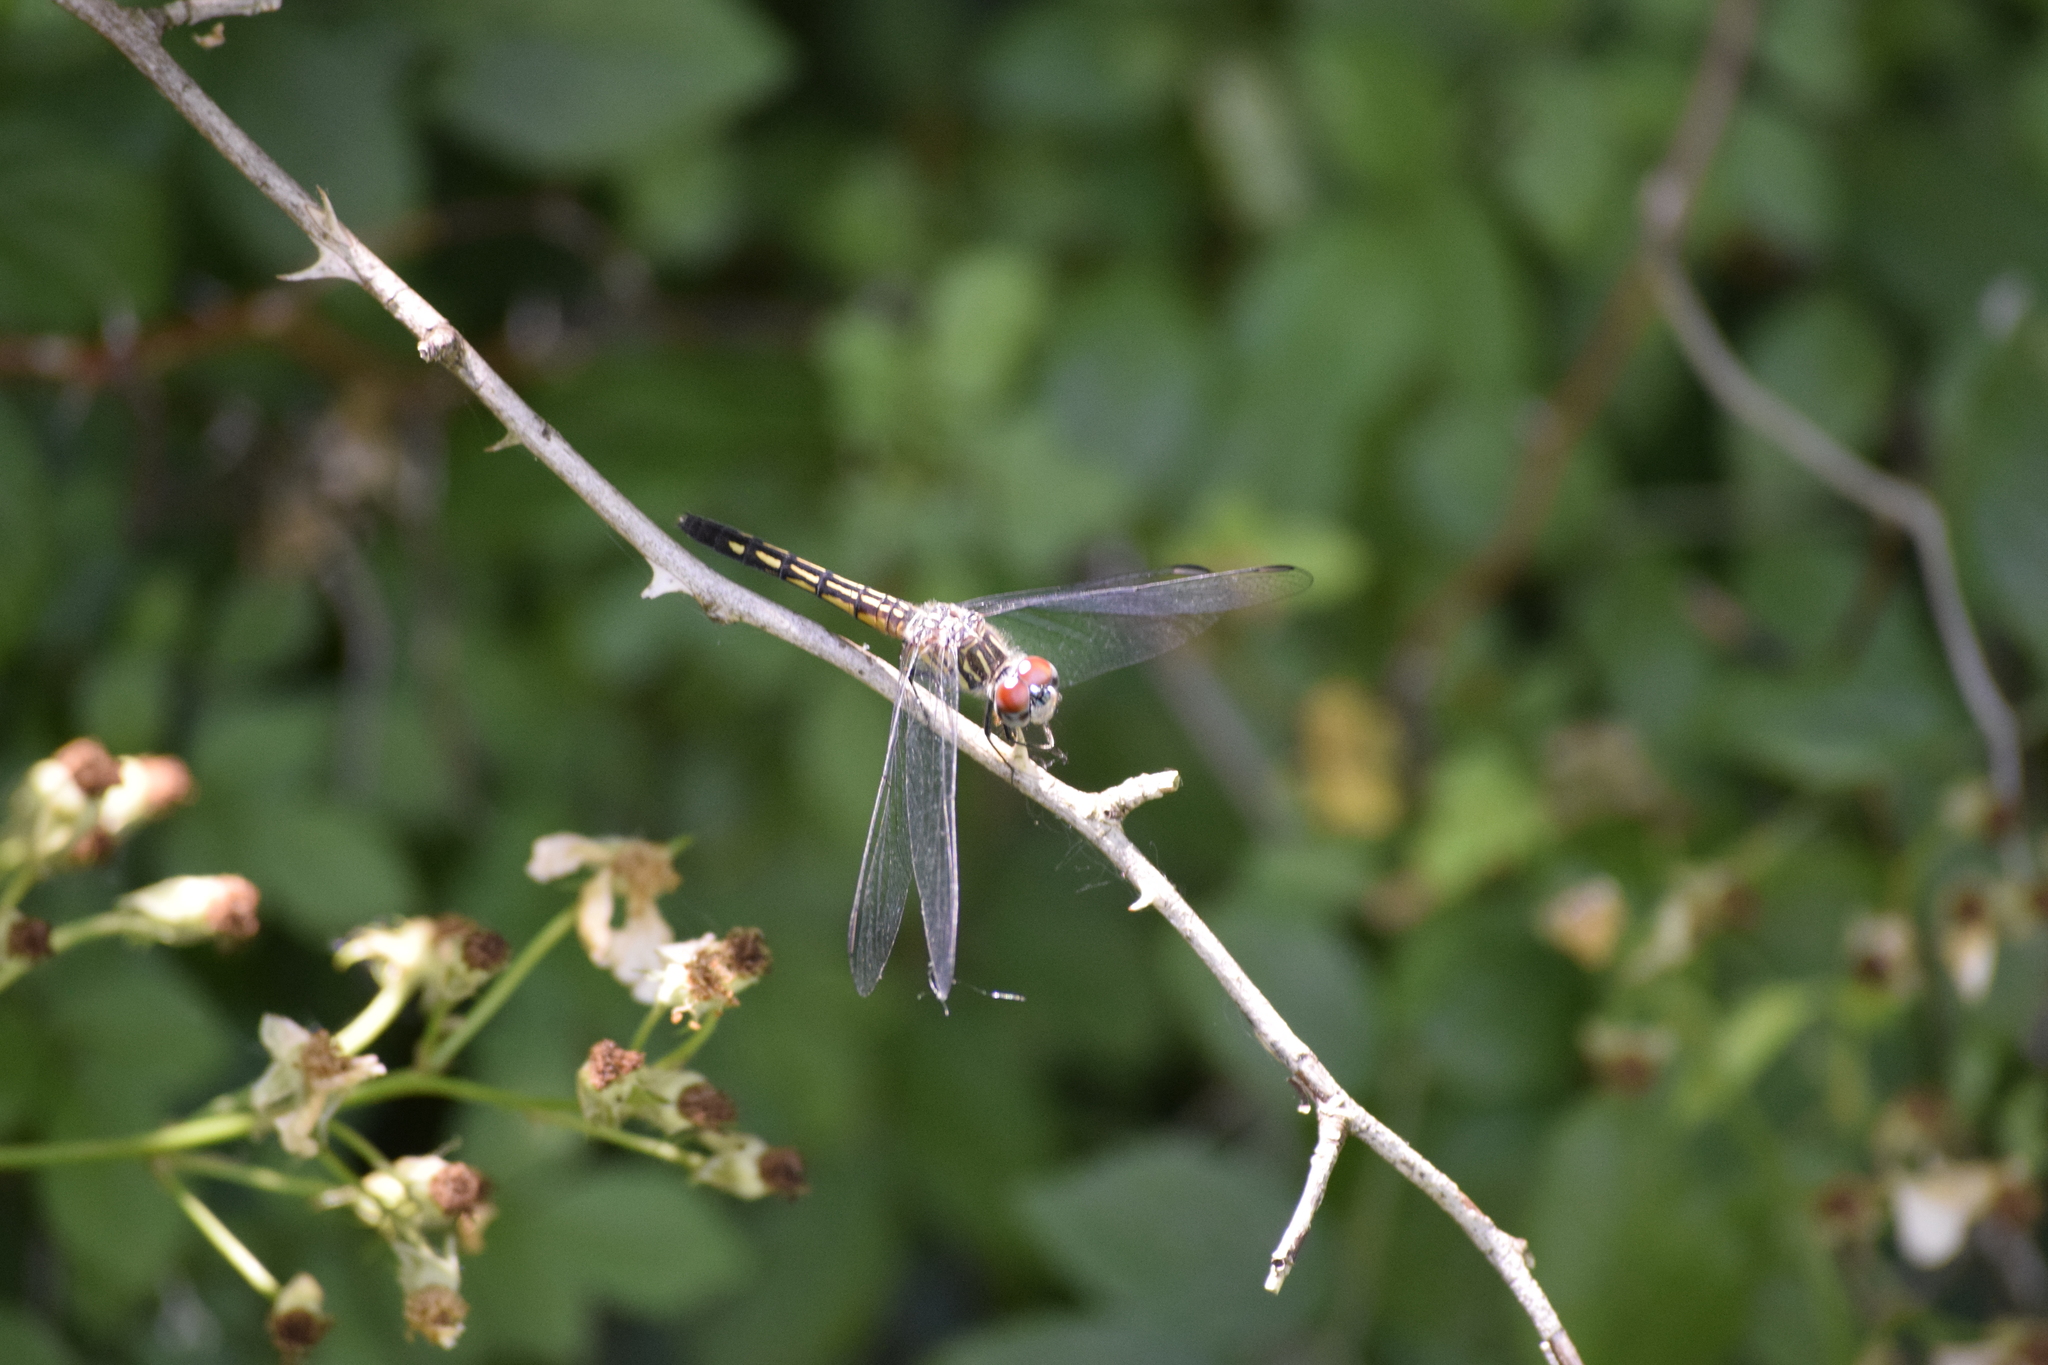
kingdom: Animalia
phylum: Arthropoda
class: Insecta
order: Odonata
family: Libellulidae
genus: Pachydiplax
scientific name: Pachydiplax longipennis
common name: Blue dasher
